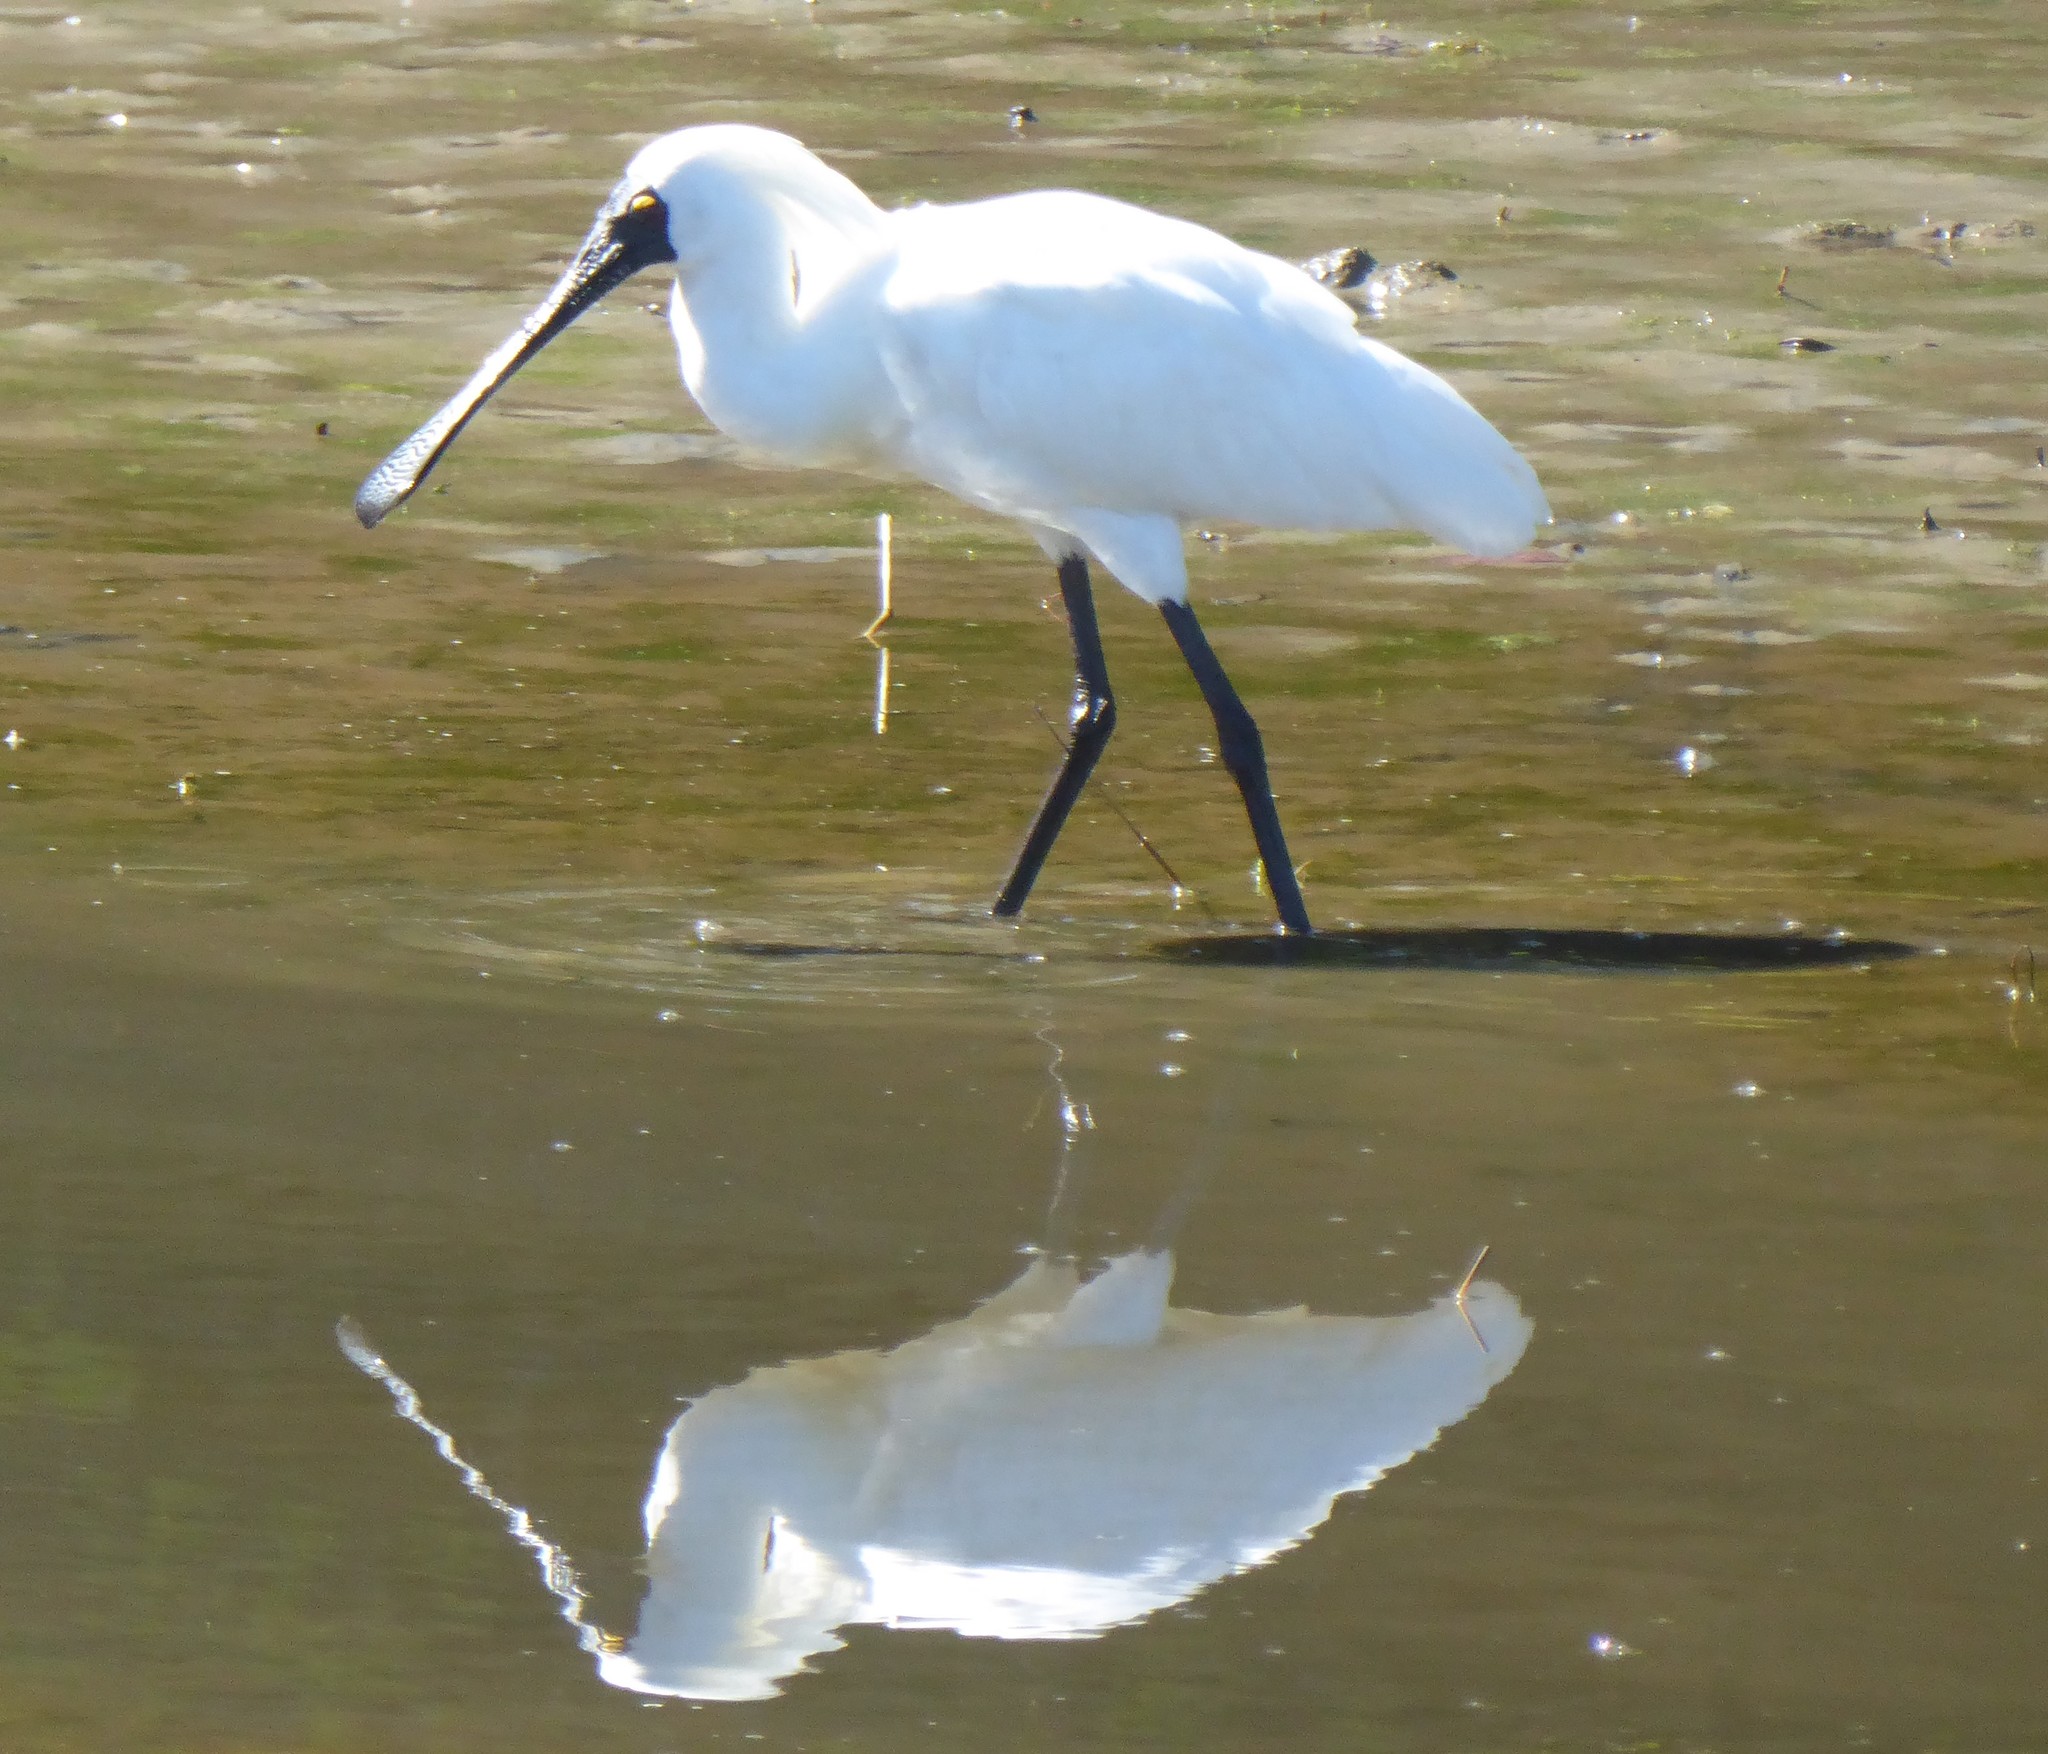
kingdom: Animalia
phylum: Chordata
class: Aves
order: Pelecaniformes
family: Threskiornithidae
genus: Platalea
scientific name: Platalea regia
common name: Royal spoonbill
